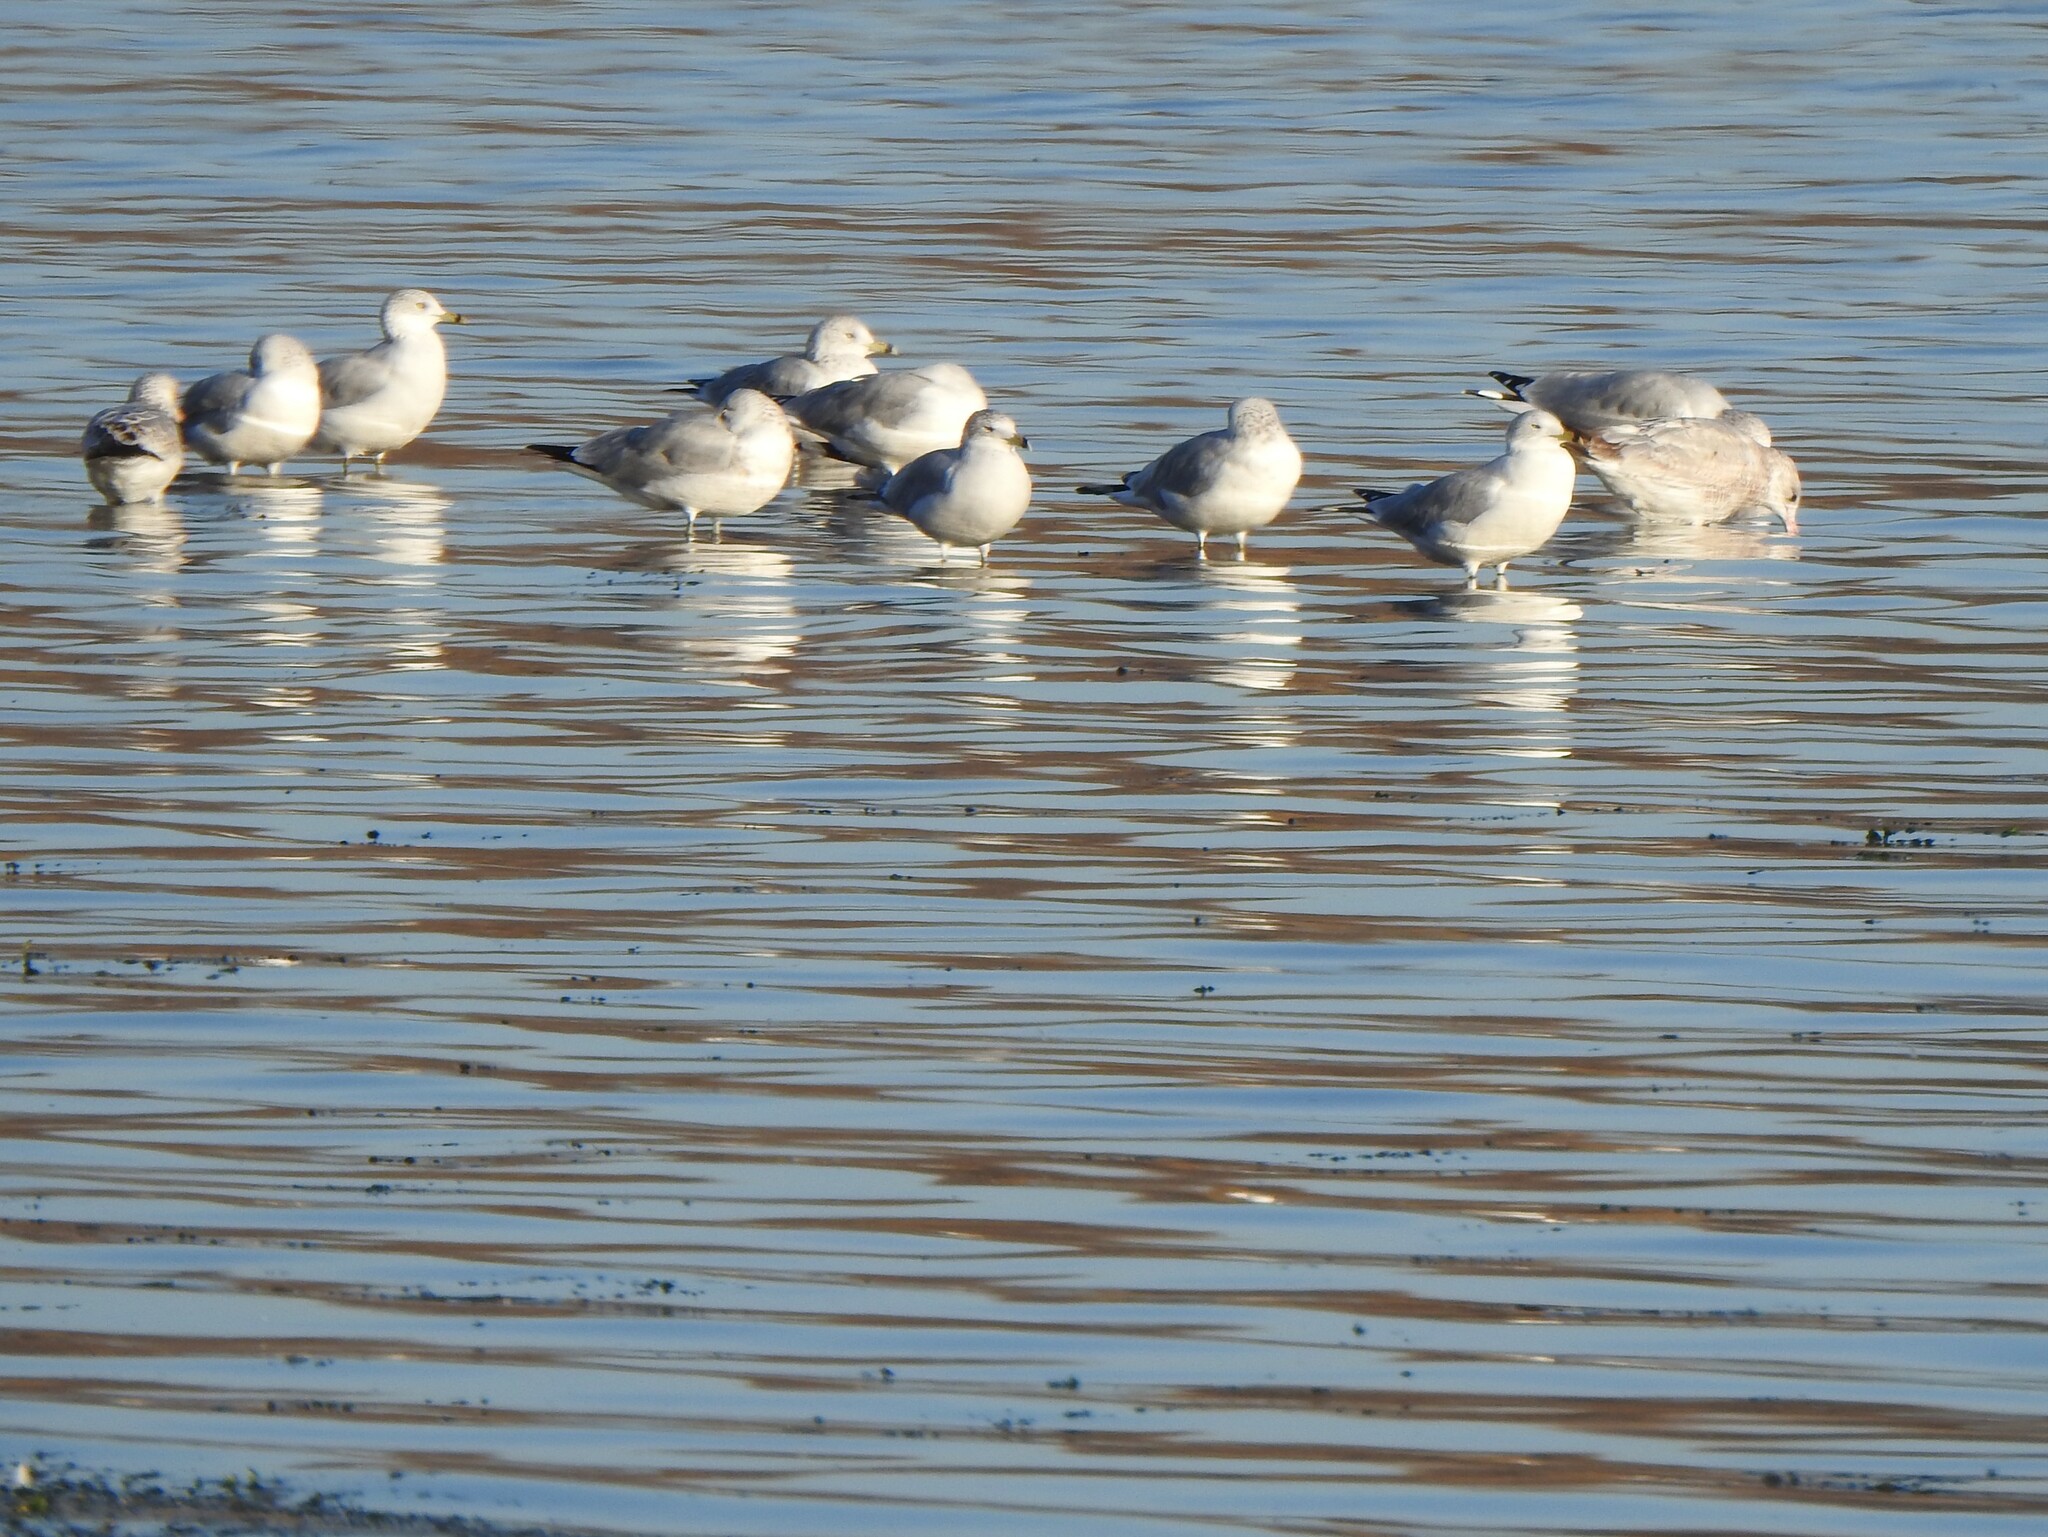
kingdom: Animalia
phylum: Chordata
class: Aves
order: Charadriiformes
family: Laridae
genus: Larus
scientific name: Larus delawarensis
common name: Ring-billed gull
